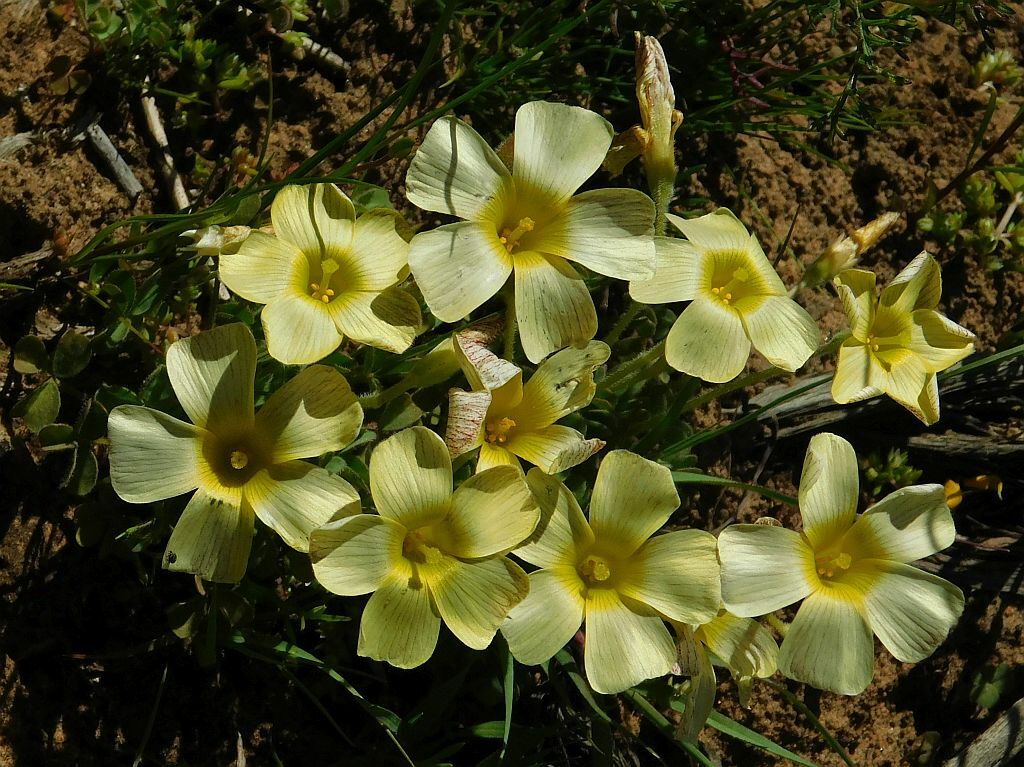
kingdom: Plantae
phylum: Tracheophyta
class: Magnoliopsida
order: Oxalidales
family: Oxalidaceae
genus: Oxalis
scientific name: Oxalis obtusa
